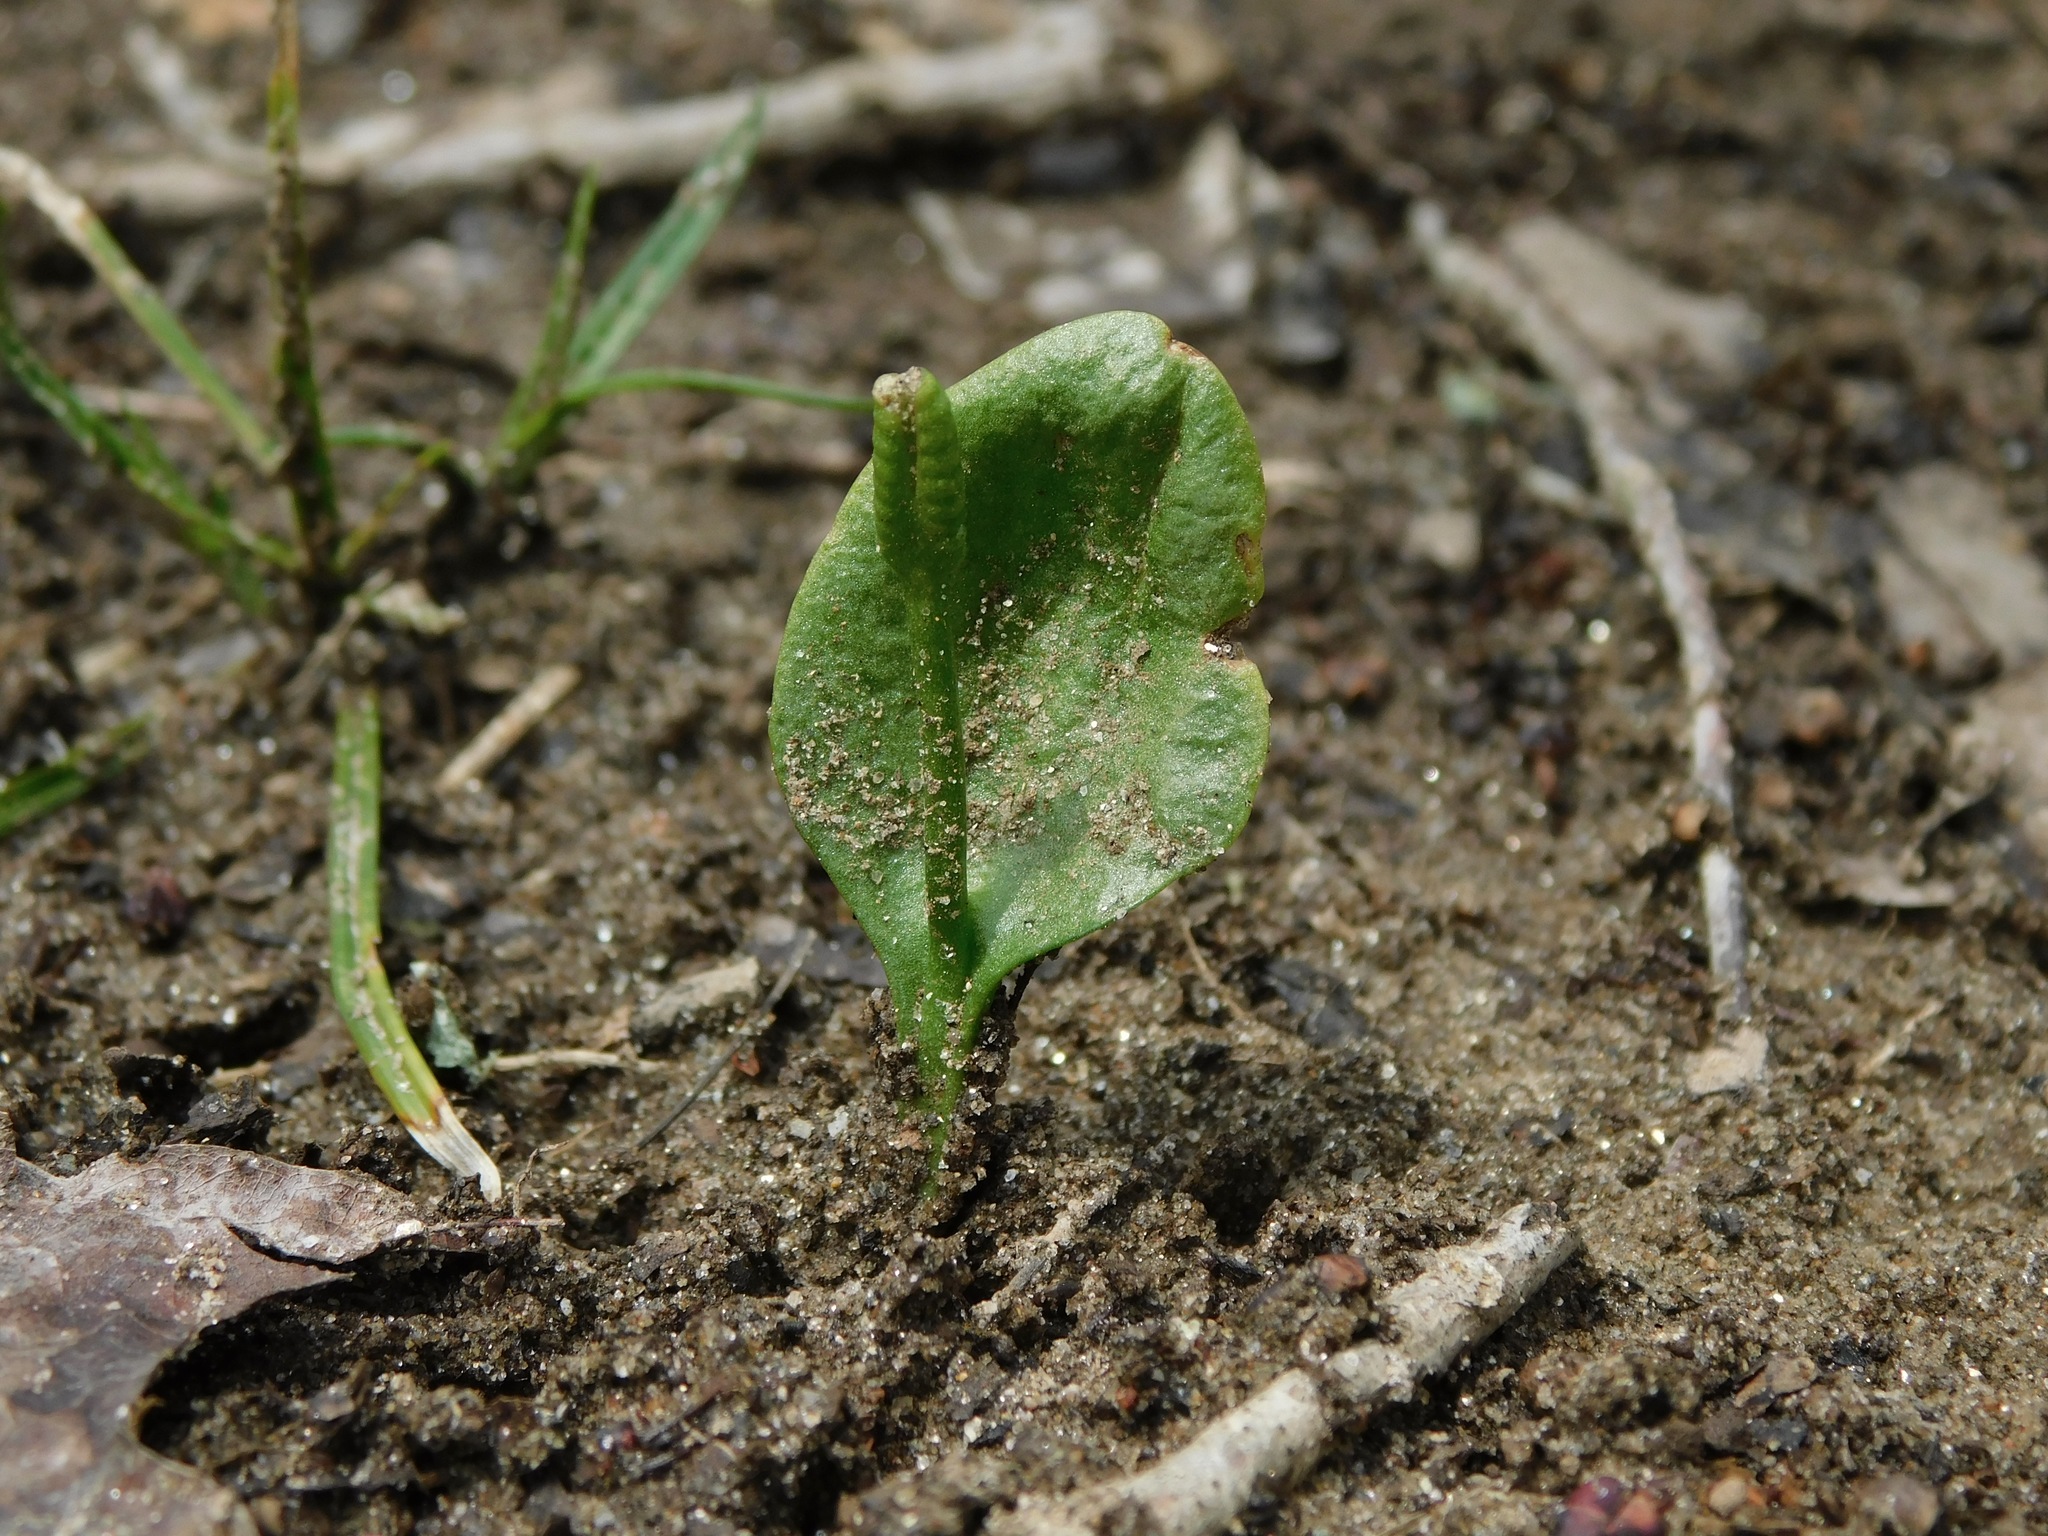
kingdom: Plantae
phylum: Tracheophyta
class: Polypodiopsida
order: Ophioglossales
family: Ophioglossaceae
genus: Ophioglossum
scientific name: Ophioglossum vulgatum
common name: Adder's-tongue
